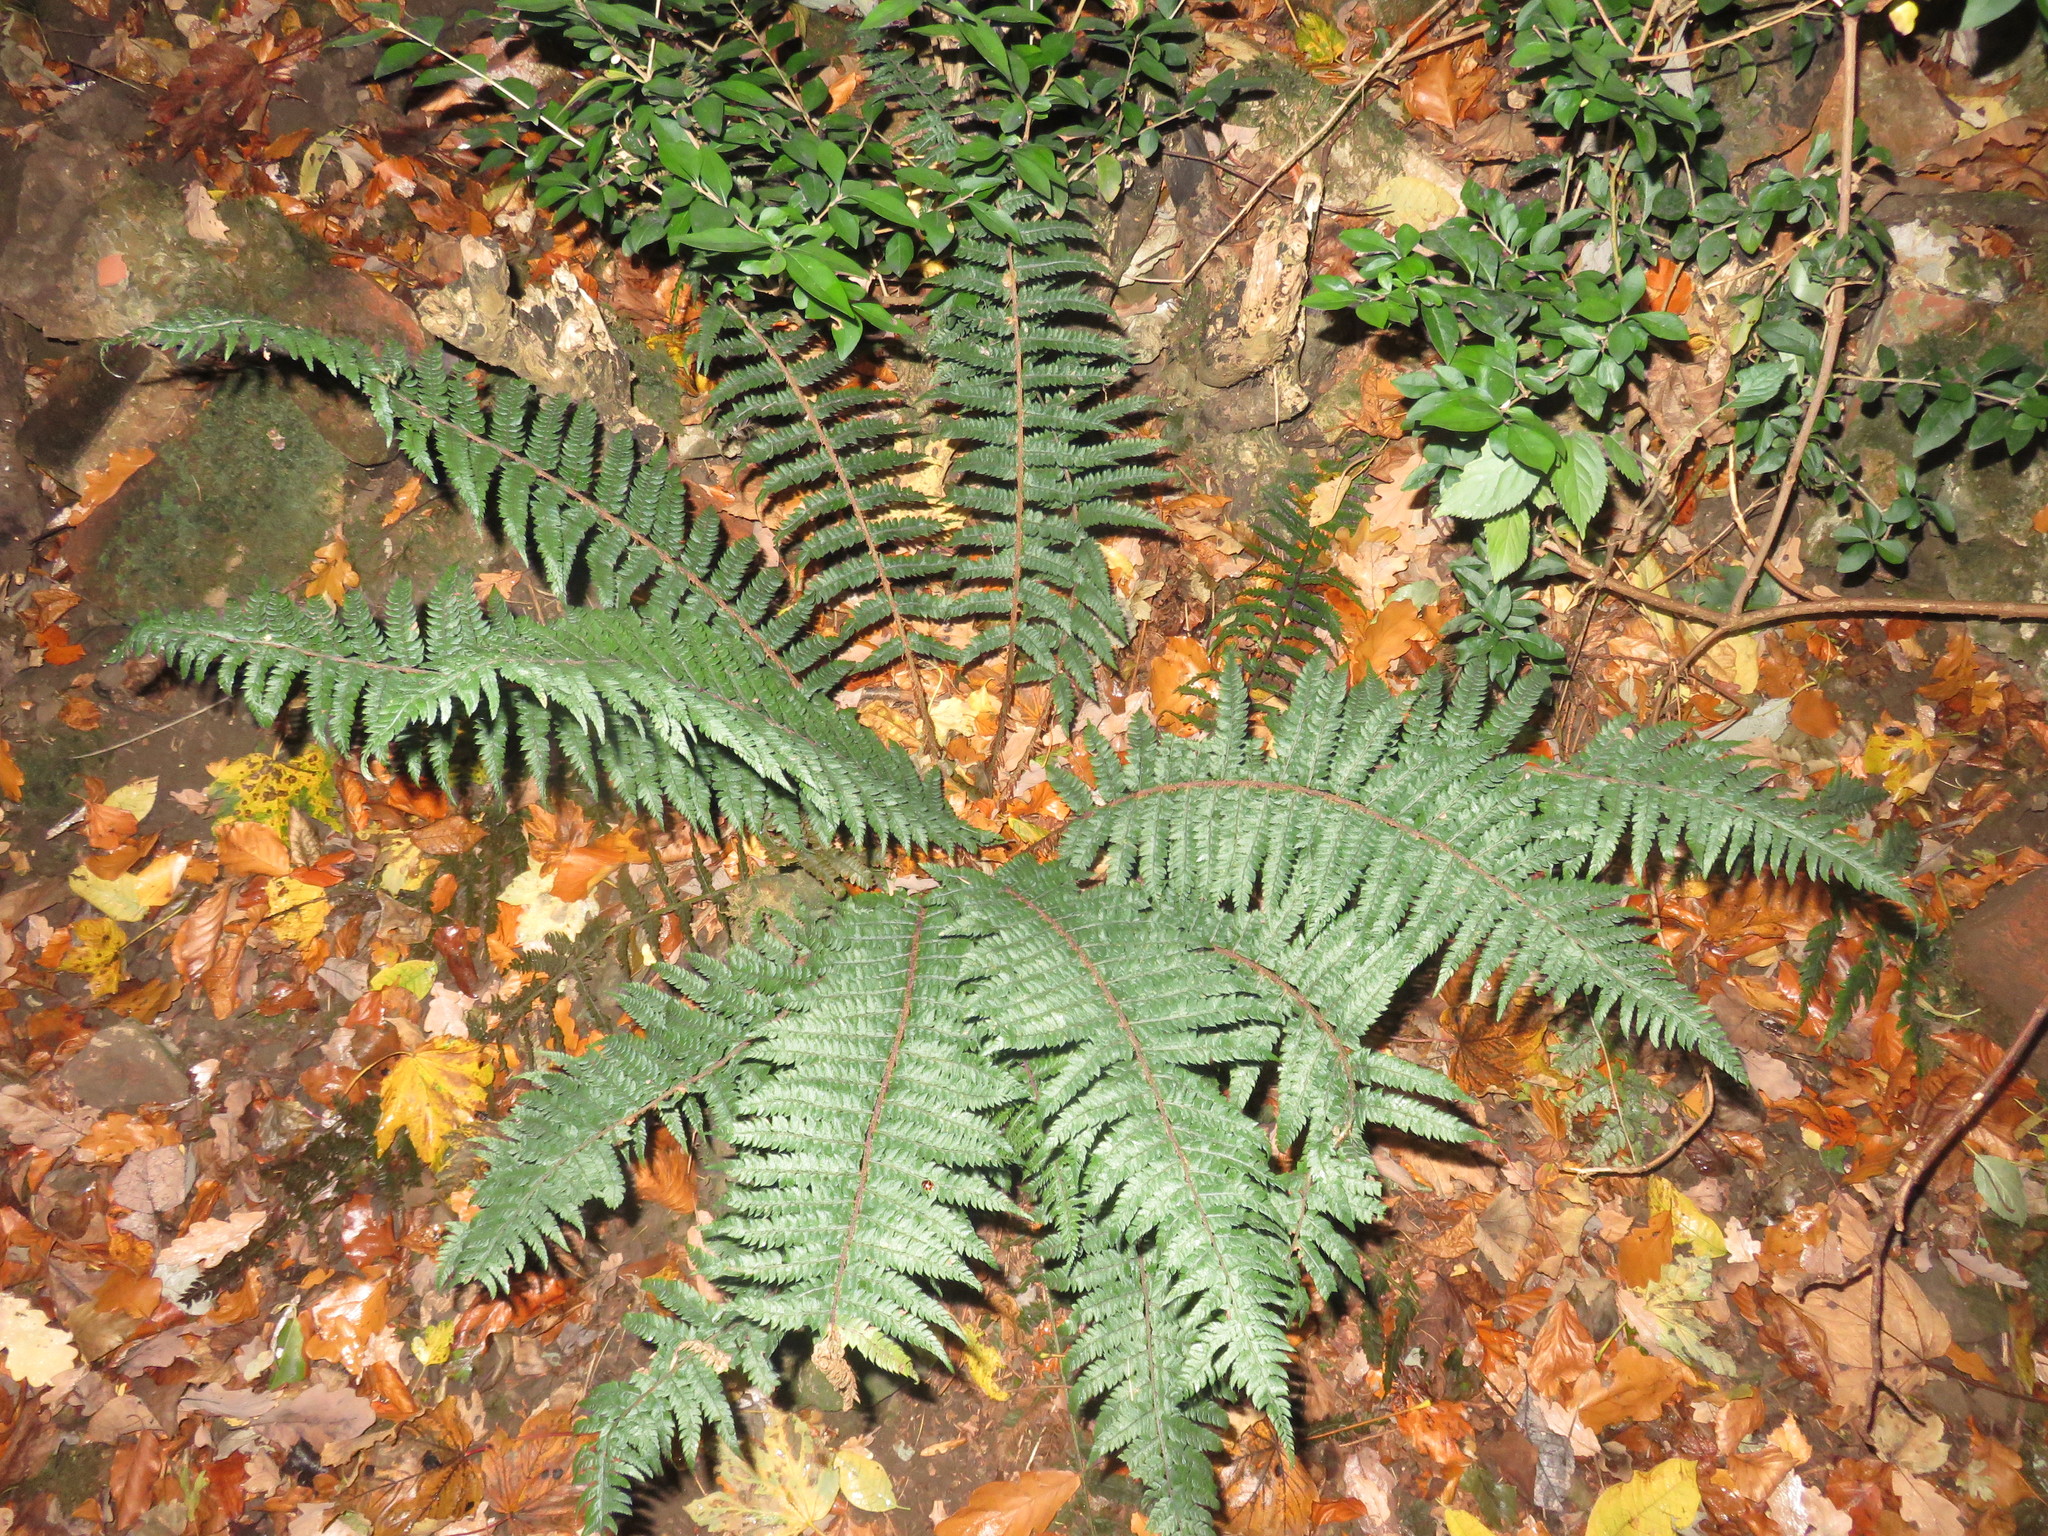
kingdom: Plantae
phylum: Tracheophyta
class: Polypodiopsida
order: Polypodiales
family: Dryopteridaceae
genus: Polystichum
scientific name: Polystichum setiferum
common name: Soft shield-fern
